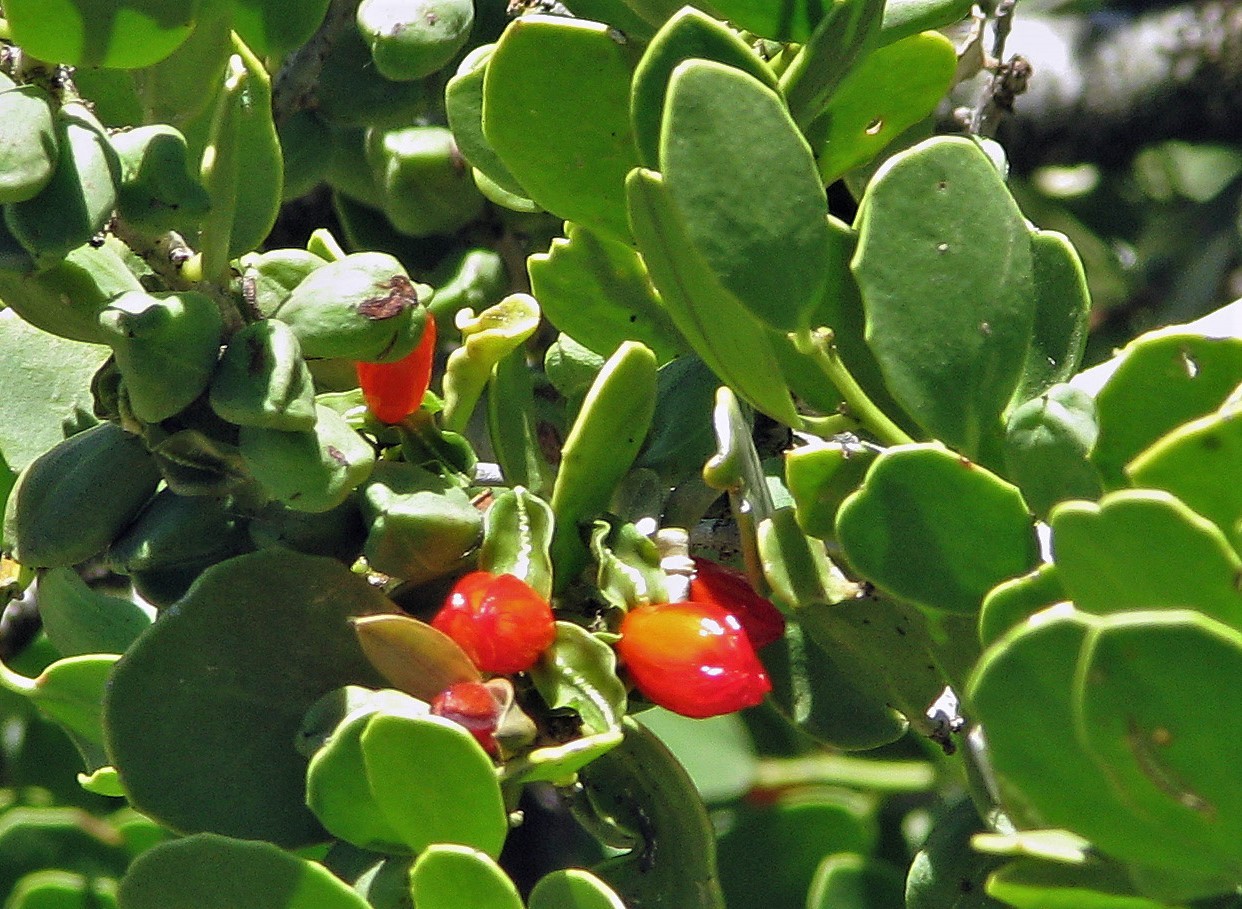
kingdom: Plantae
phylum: Tracheophyta
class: Magnoliopsida
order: Celastrales
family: Celastraceae
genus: Tricerma
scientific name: Tricerma vitis-idaeum
